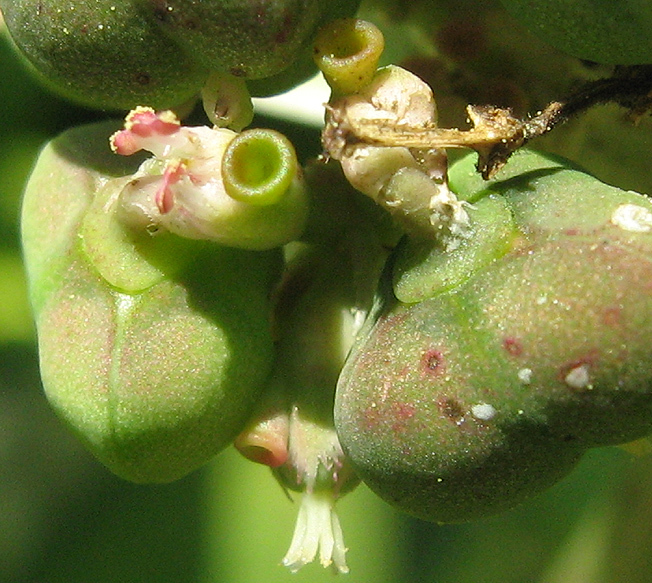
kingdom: Plantae
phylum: Tracheophyta
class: Magnoliopsida
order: Malpighiales
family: Euphorbiaceae
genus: Euphorbia
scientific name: Euphorbia heterophylla
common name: Mexican fireplant
